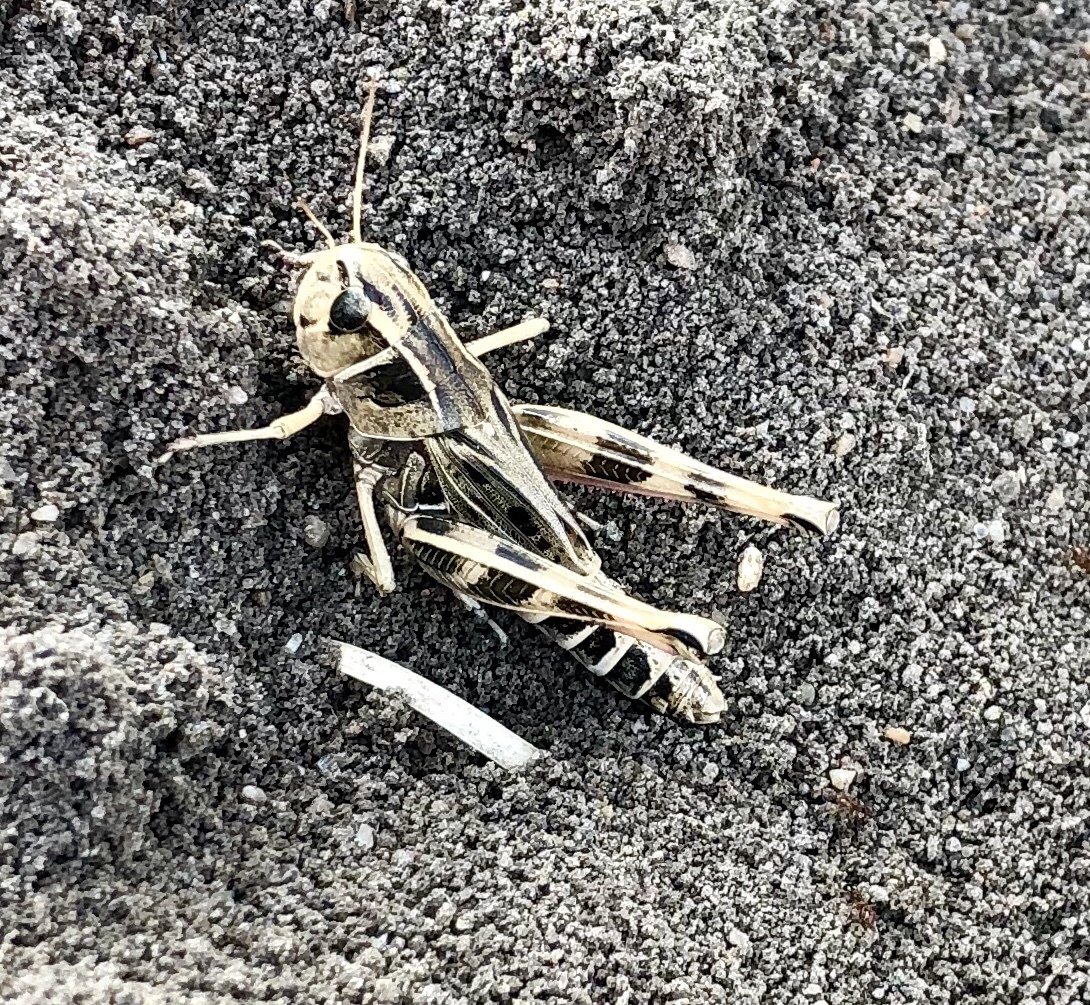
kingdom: Animalia
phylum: Arthropoda
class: Insecta
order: Orthoptera
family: Acrididae
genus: Boopedon
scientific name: Boopedon gracile
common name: Graceful range grasshopper
